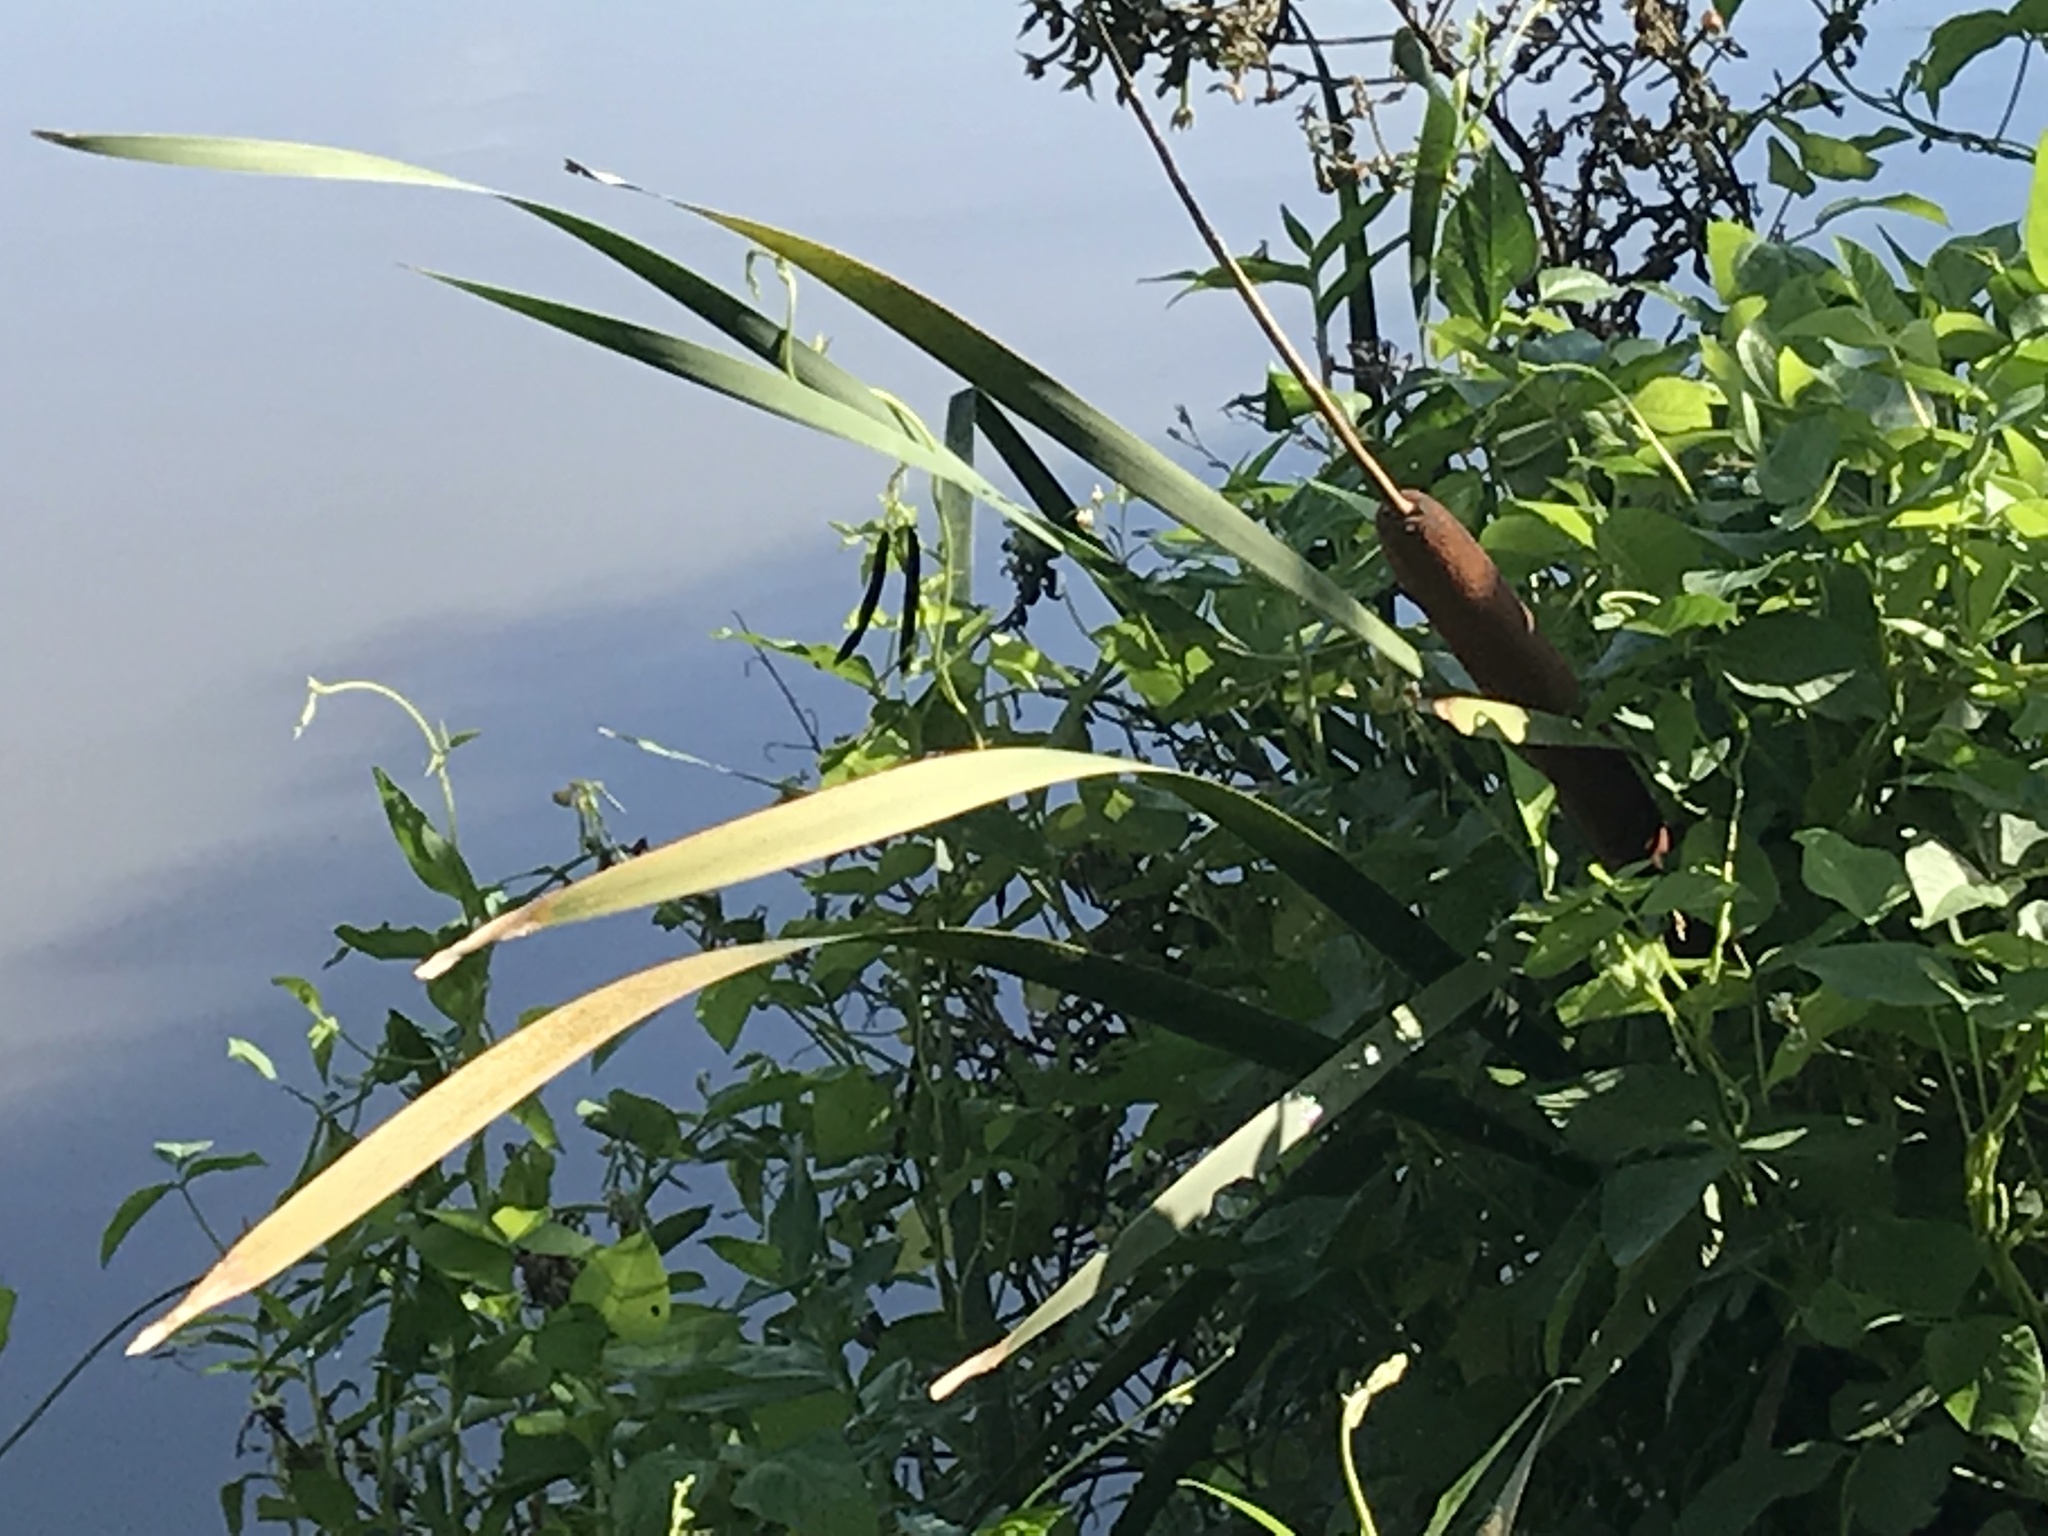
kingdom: Plantae
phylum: Tracheophyta
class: Liliopsida
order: Poales
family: Typhaceae
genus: Typha
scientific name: Typha orientalis
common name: Bullrush
